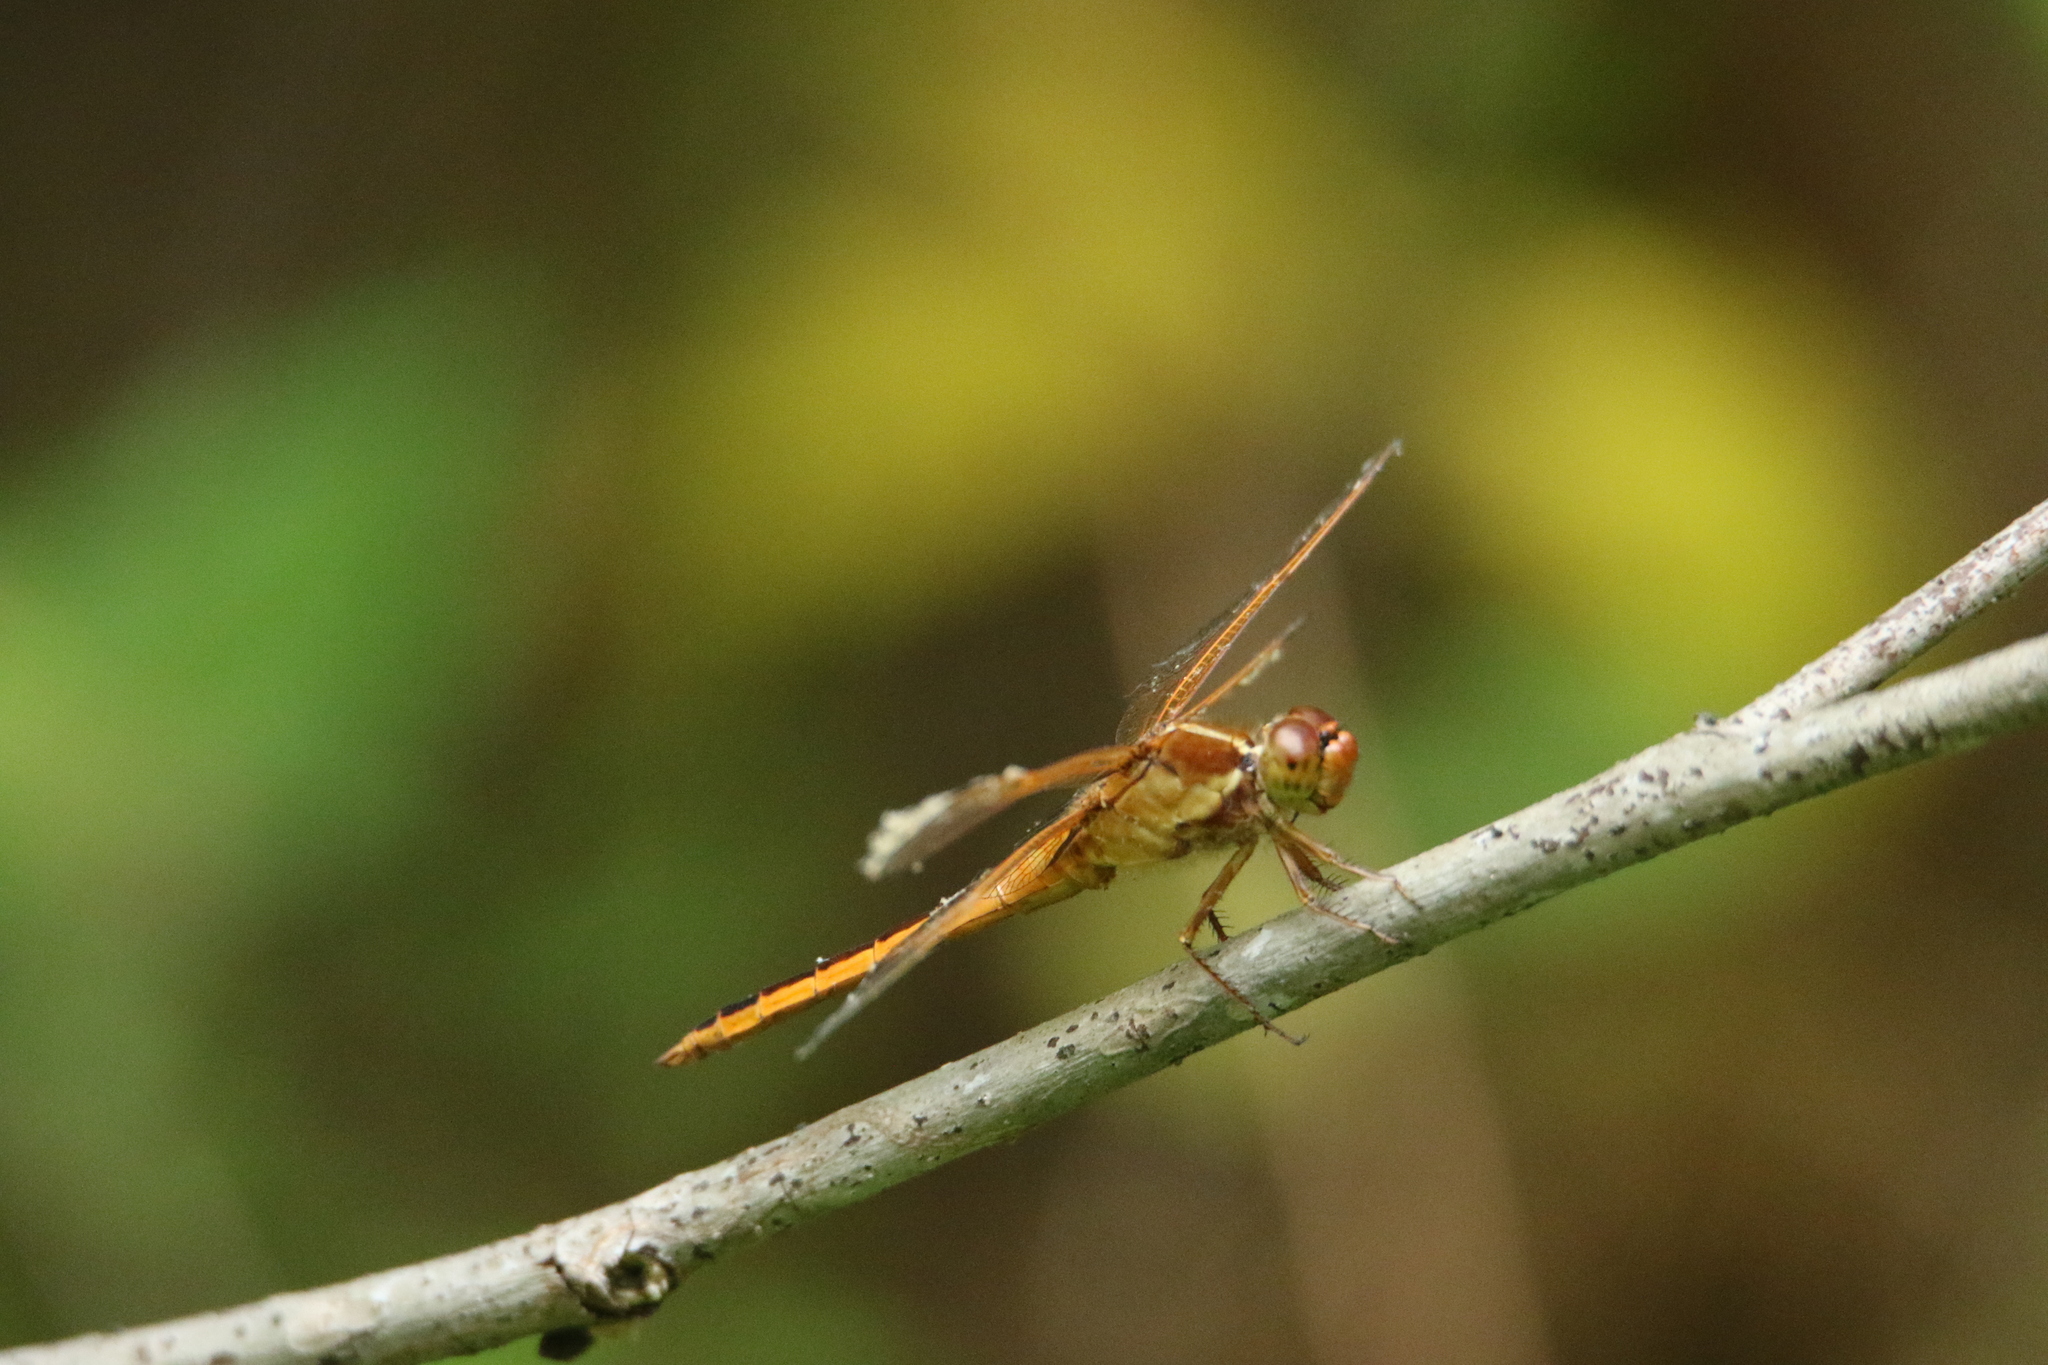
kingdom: Animalia
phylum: Arthropoda
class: Insecta
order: Odonata
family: Libellulidae
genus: Libellula
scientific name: Libellula needhami
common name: Needham's skimmer
